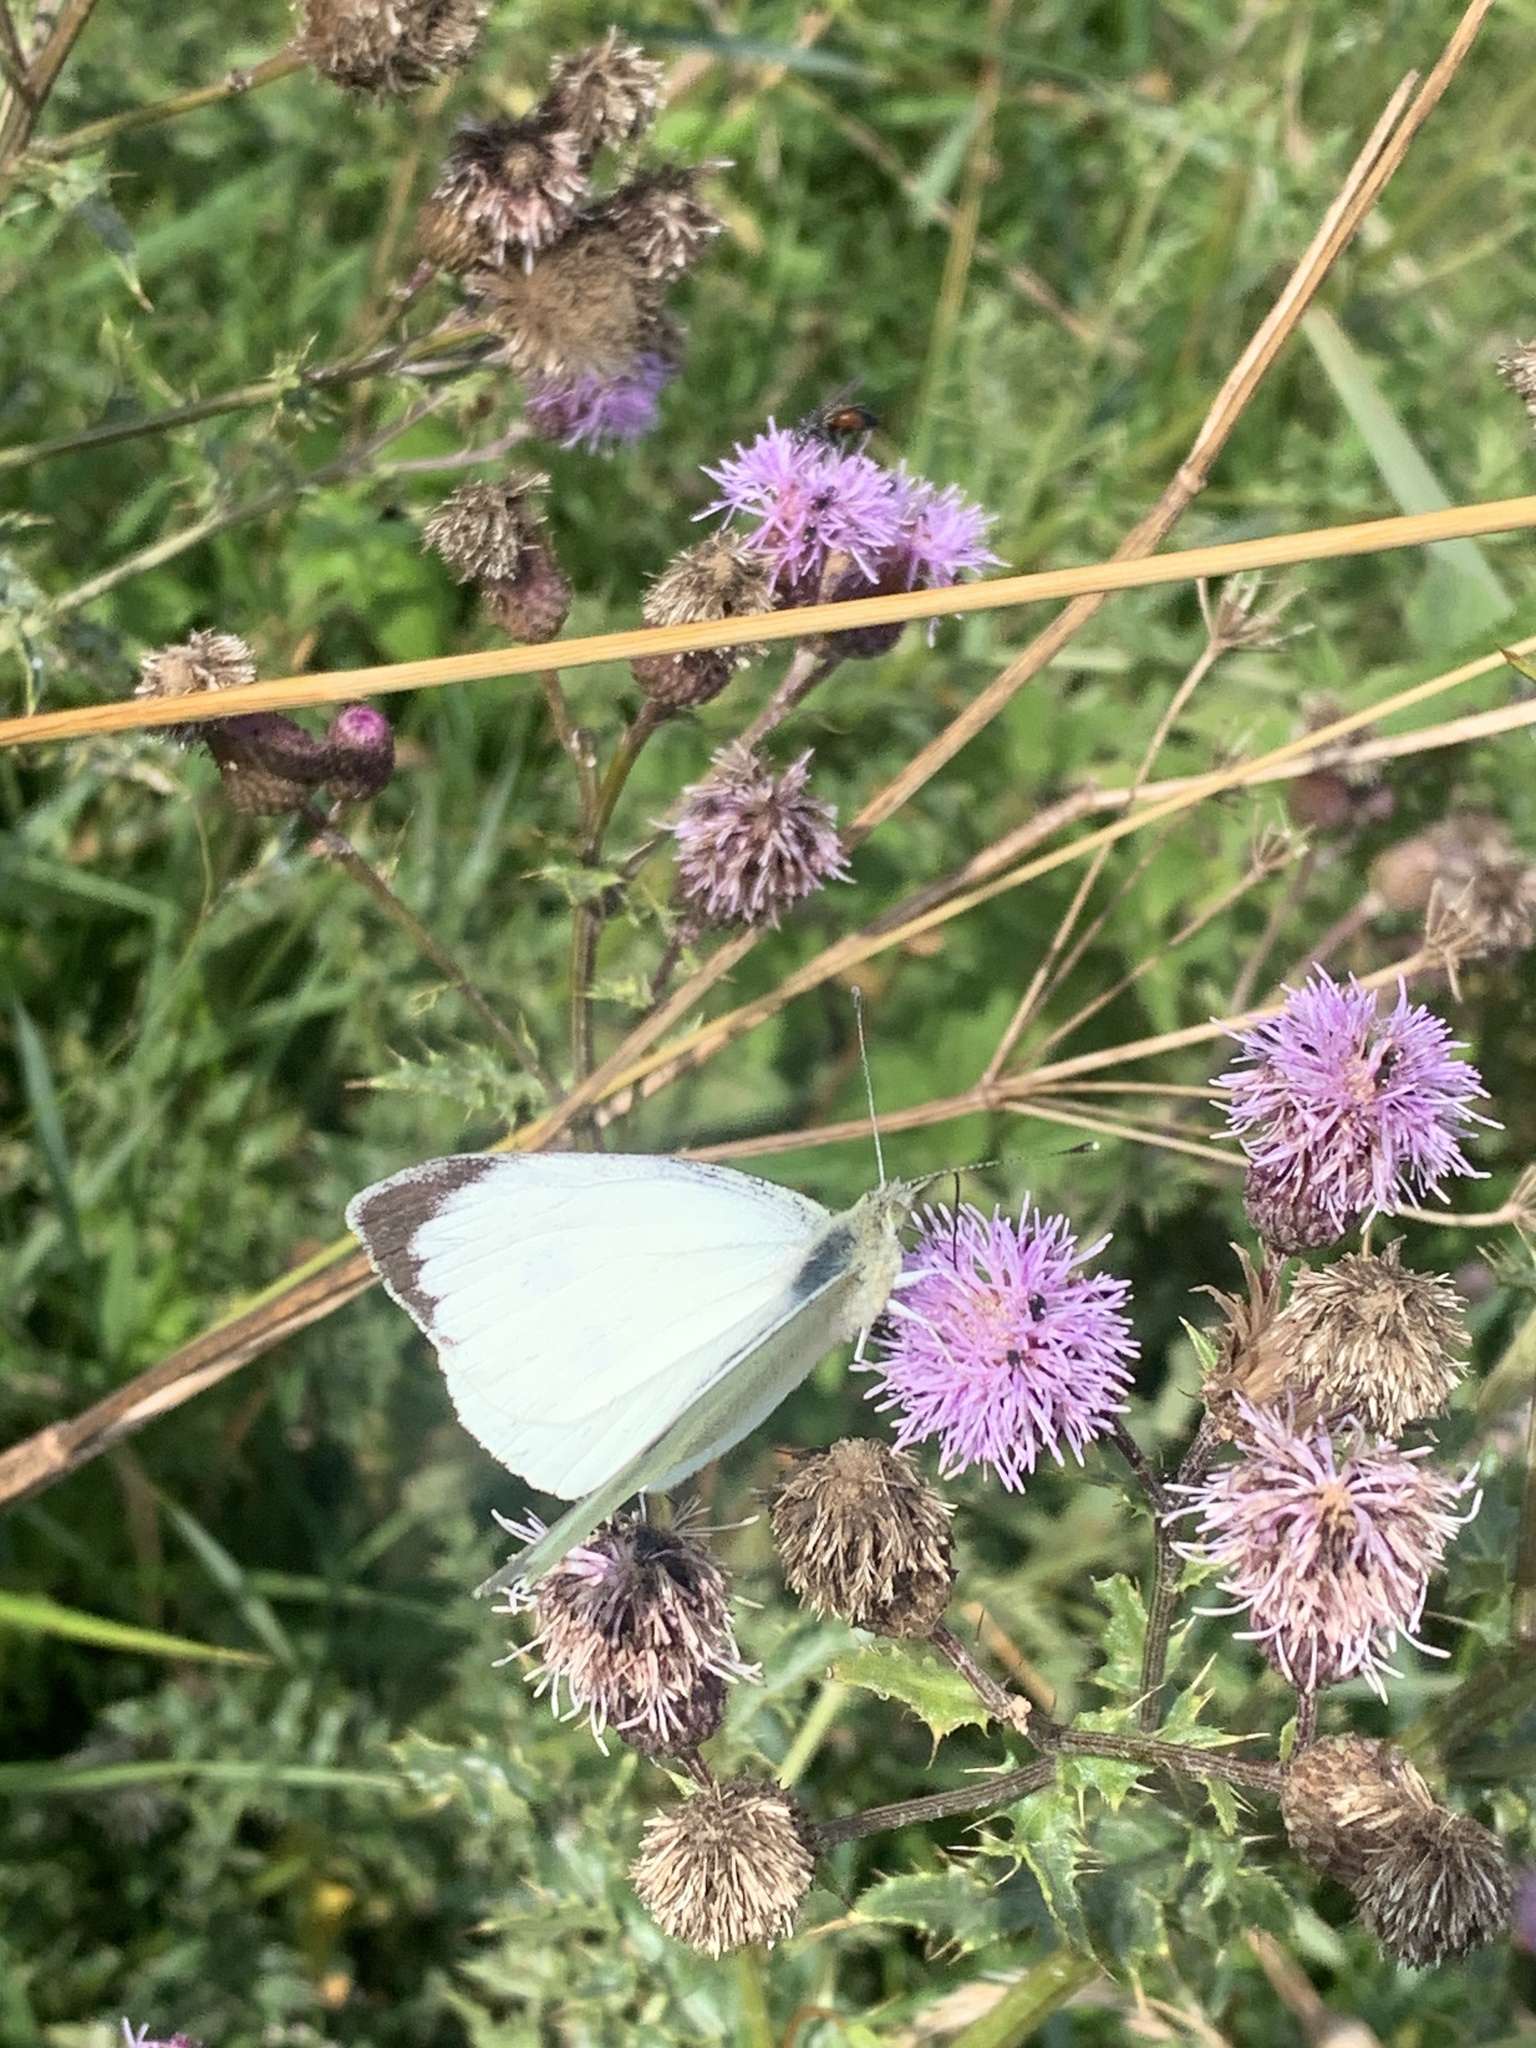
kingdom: Animalia
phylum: Arthropoda
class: Insecta
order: Lepidoptera
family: Pieridae
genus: Pieris
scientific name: Pieris brassicae
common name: Large white
